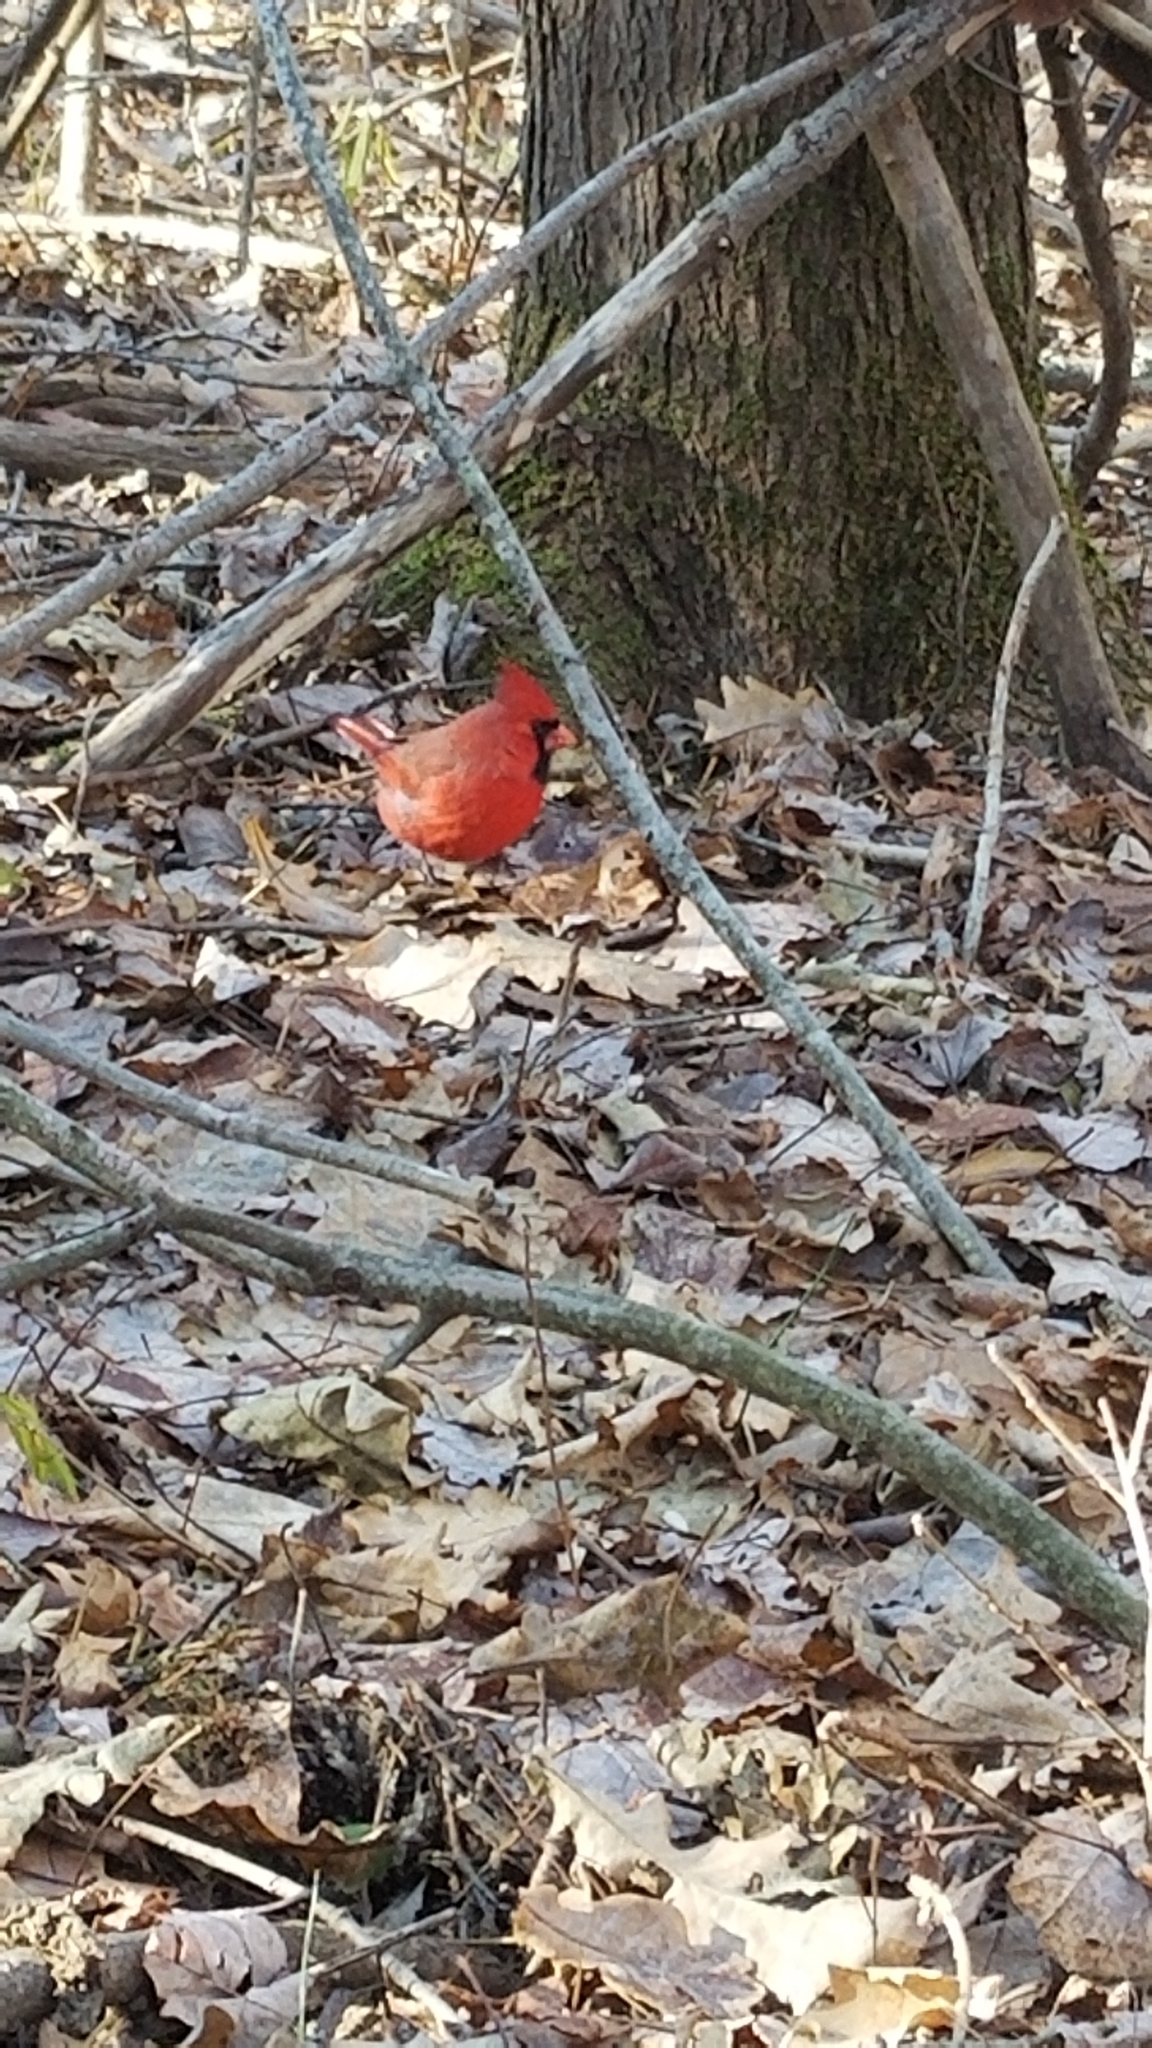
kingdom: Animalia
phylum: Chordata
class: Aves
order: Passeriformes
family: Cardinalidae
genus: Cardinalis
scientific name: Cardinalis cardinalis
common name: Northern cardinal
